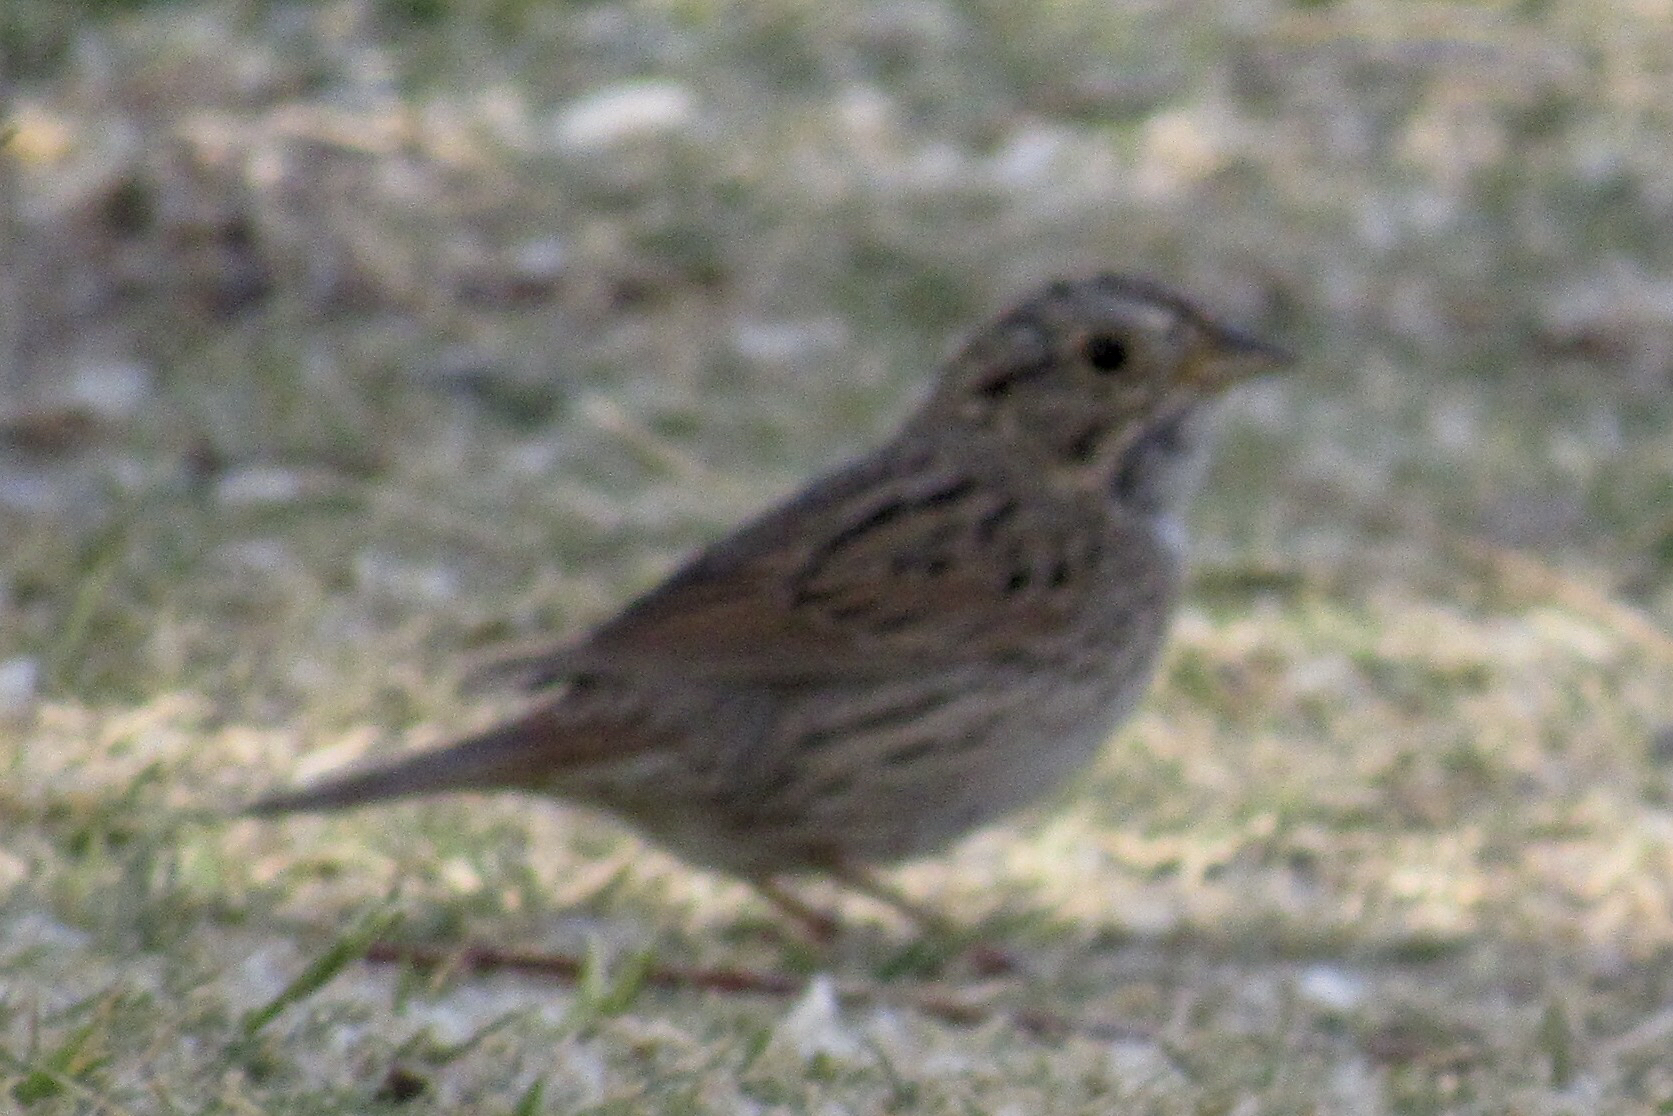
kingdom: Animalia
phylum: Chordata
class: Aves
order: Passeriformes
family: Passerellidae
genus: Melospiza
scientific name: Melospiza lincolnii
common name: Lincoln's sparrow
